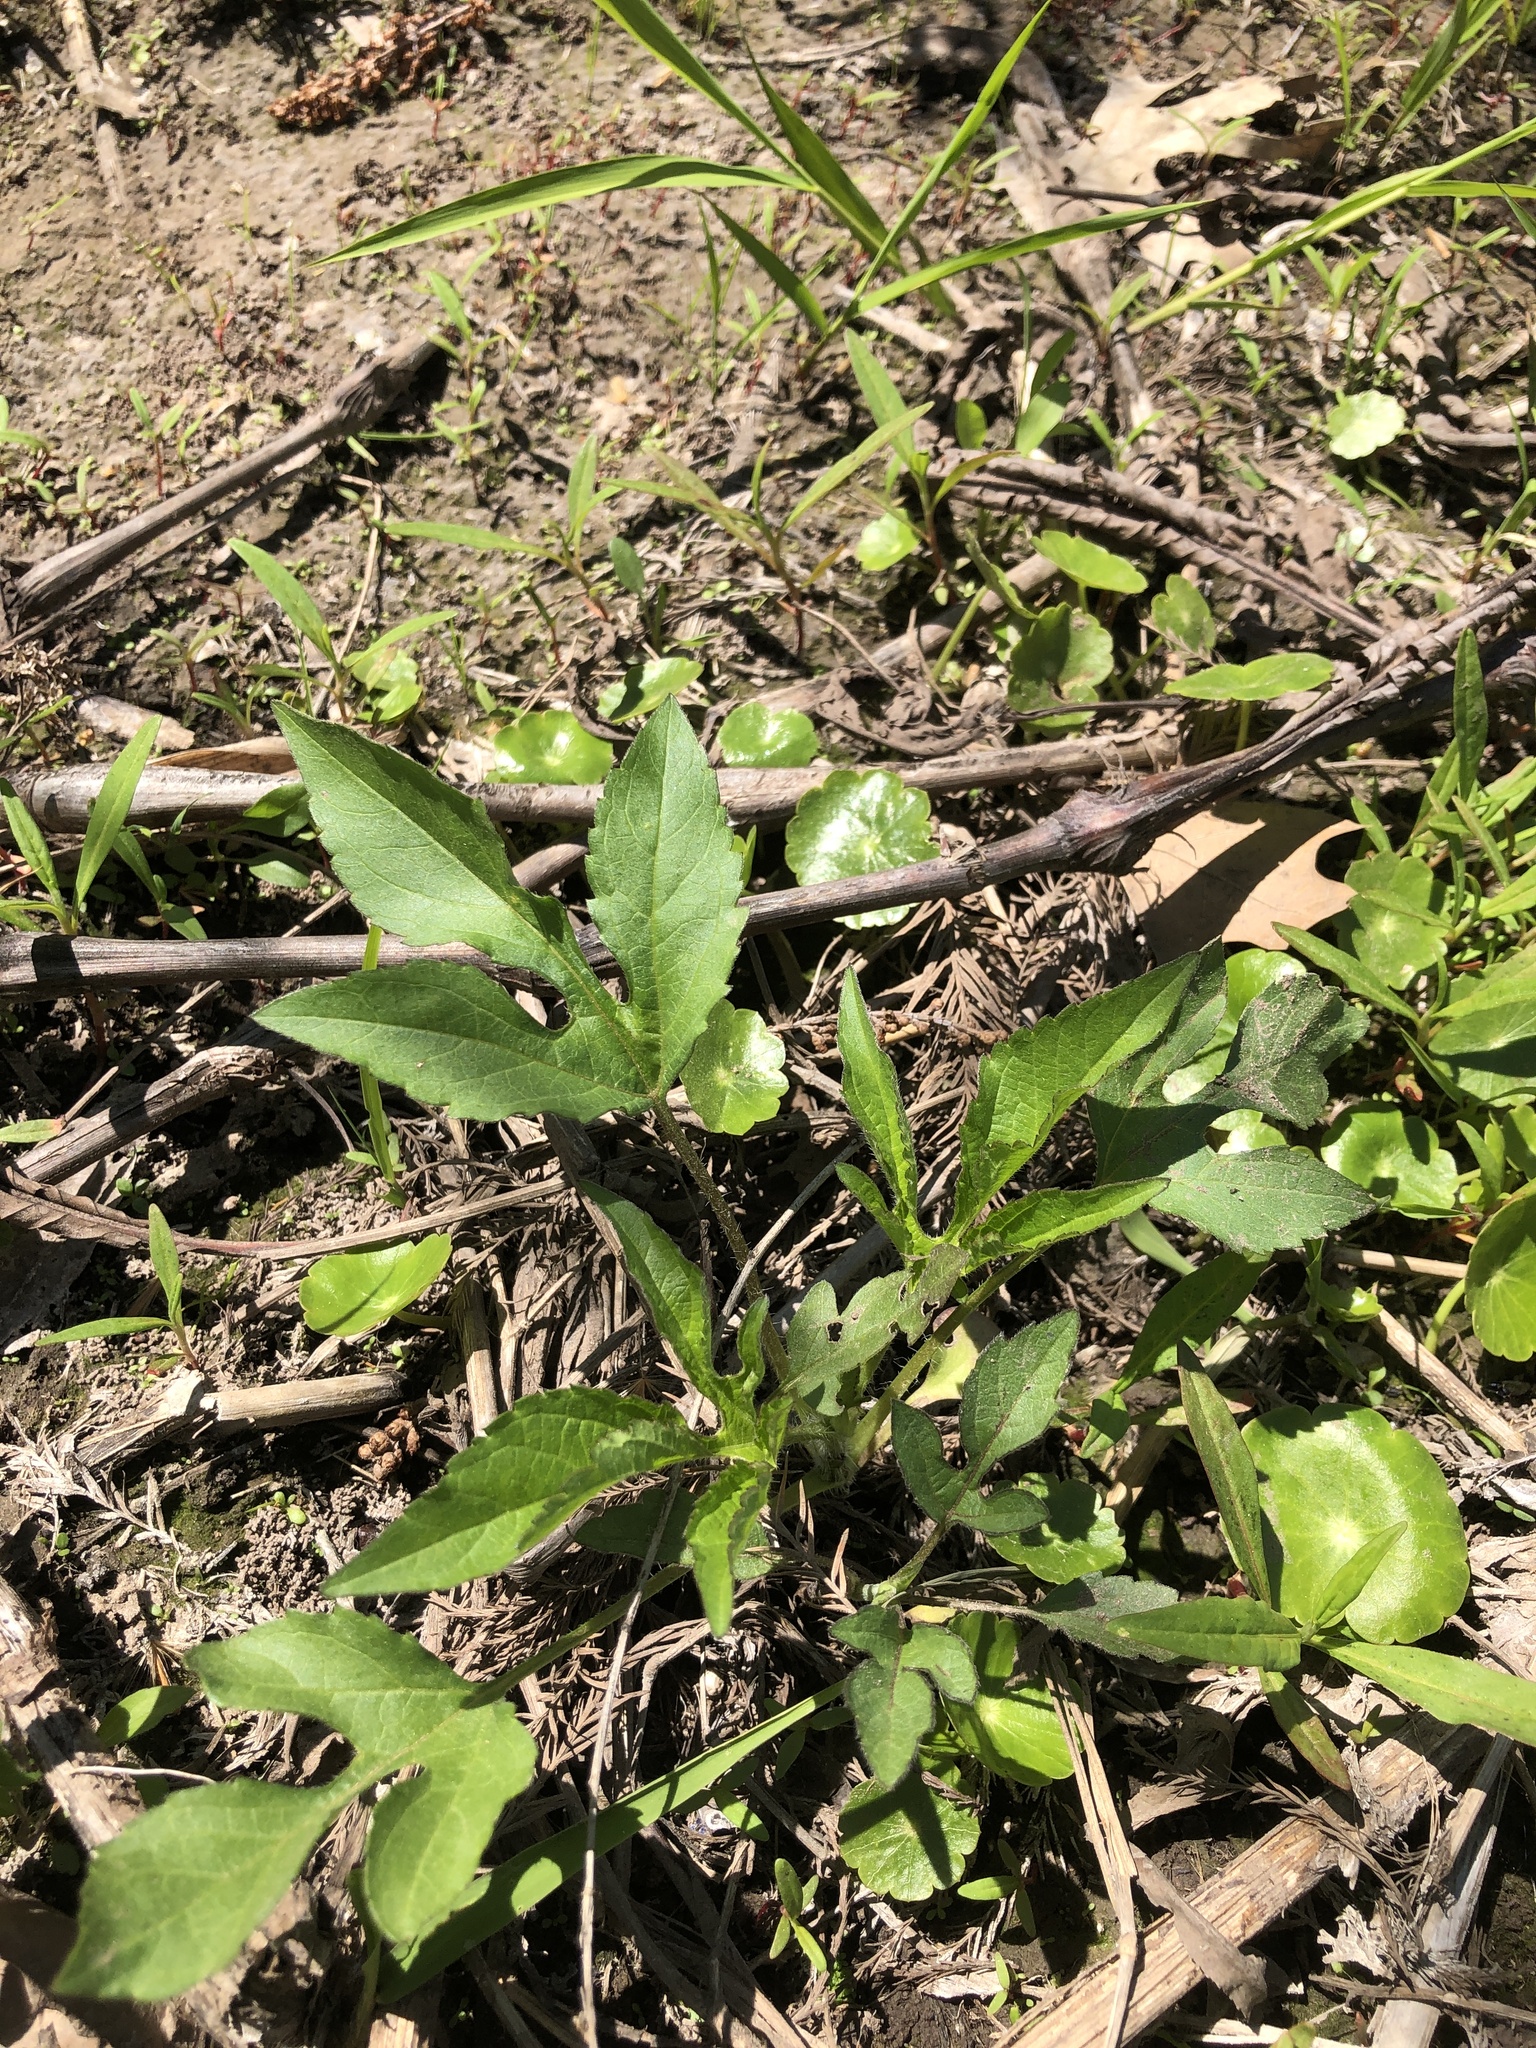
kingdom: Plantae
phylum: Tracheophyta
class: Magnoliopsida
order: Asterales
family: Asteraceae
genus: Ambrosia
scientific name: Ambrosia trifida
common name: Giant ragweed
